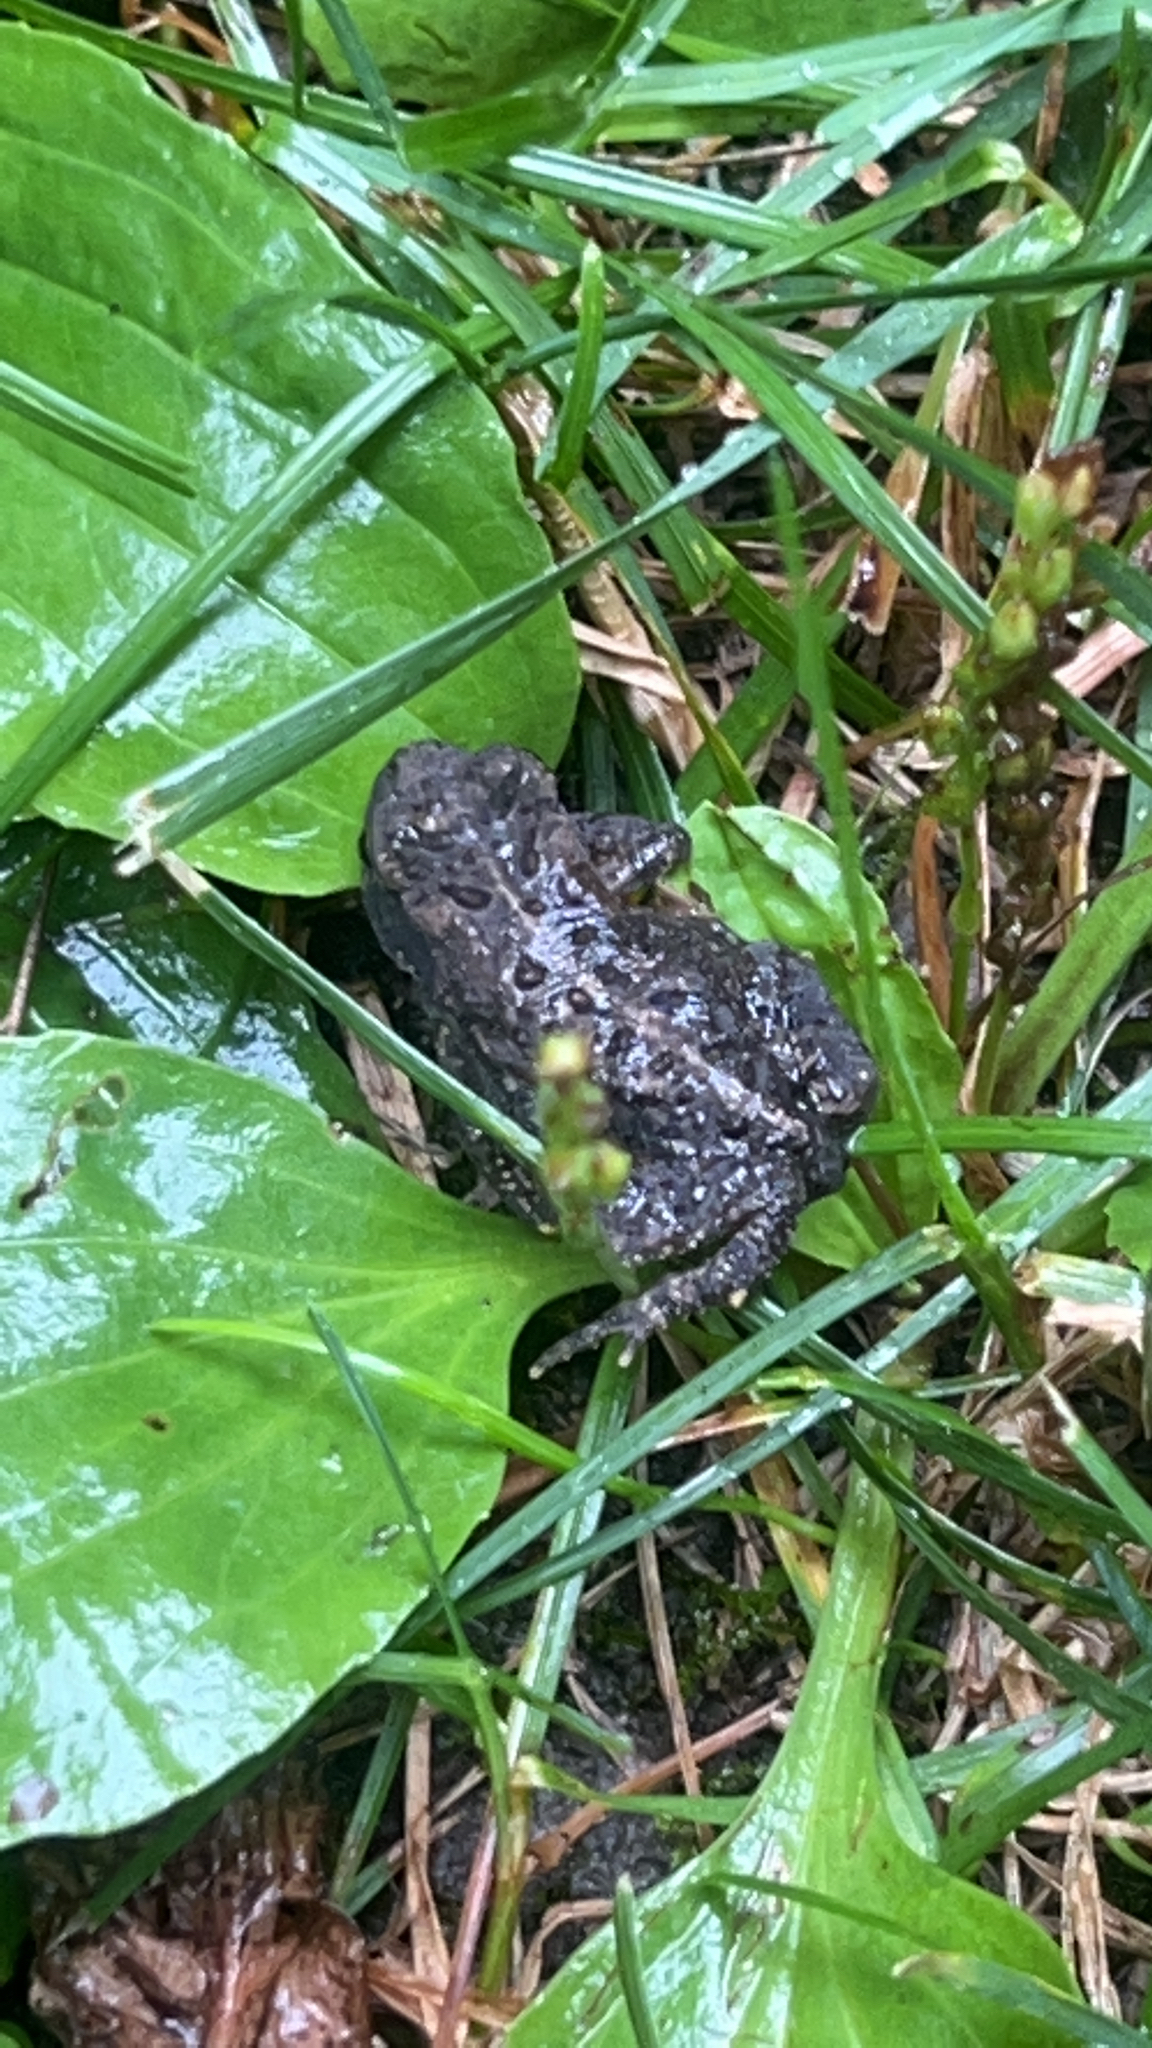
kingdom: Animalia
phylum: Chordata
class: Amphibia
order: Anura
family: Bufonidae
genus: Anaxyrus
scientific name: Anaxyrus americanus
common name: American toad
